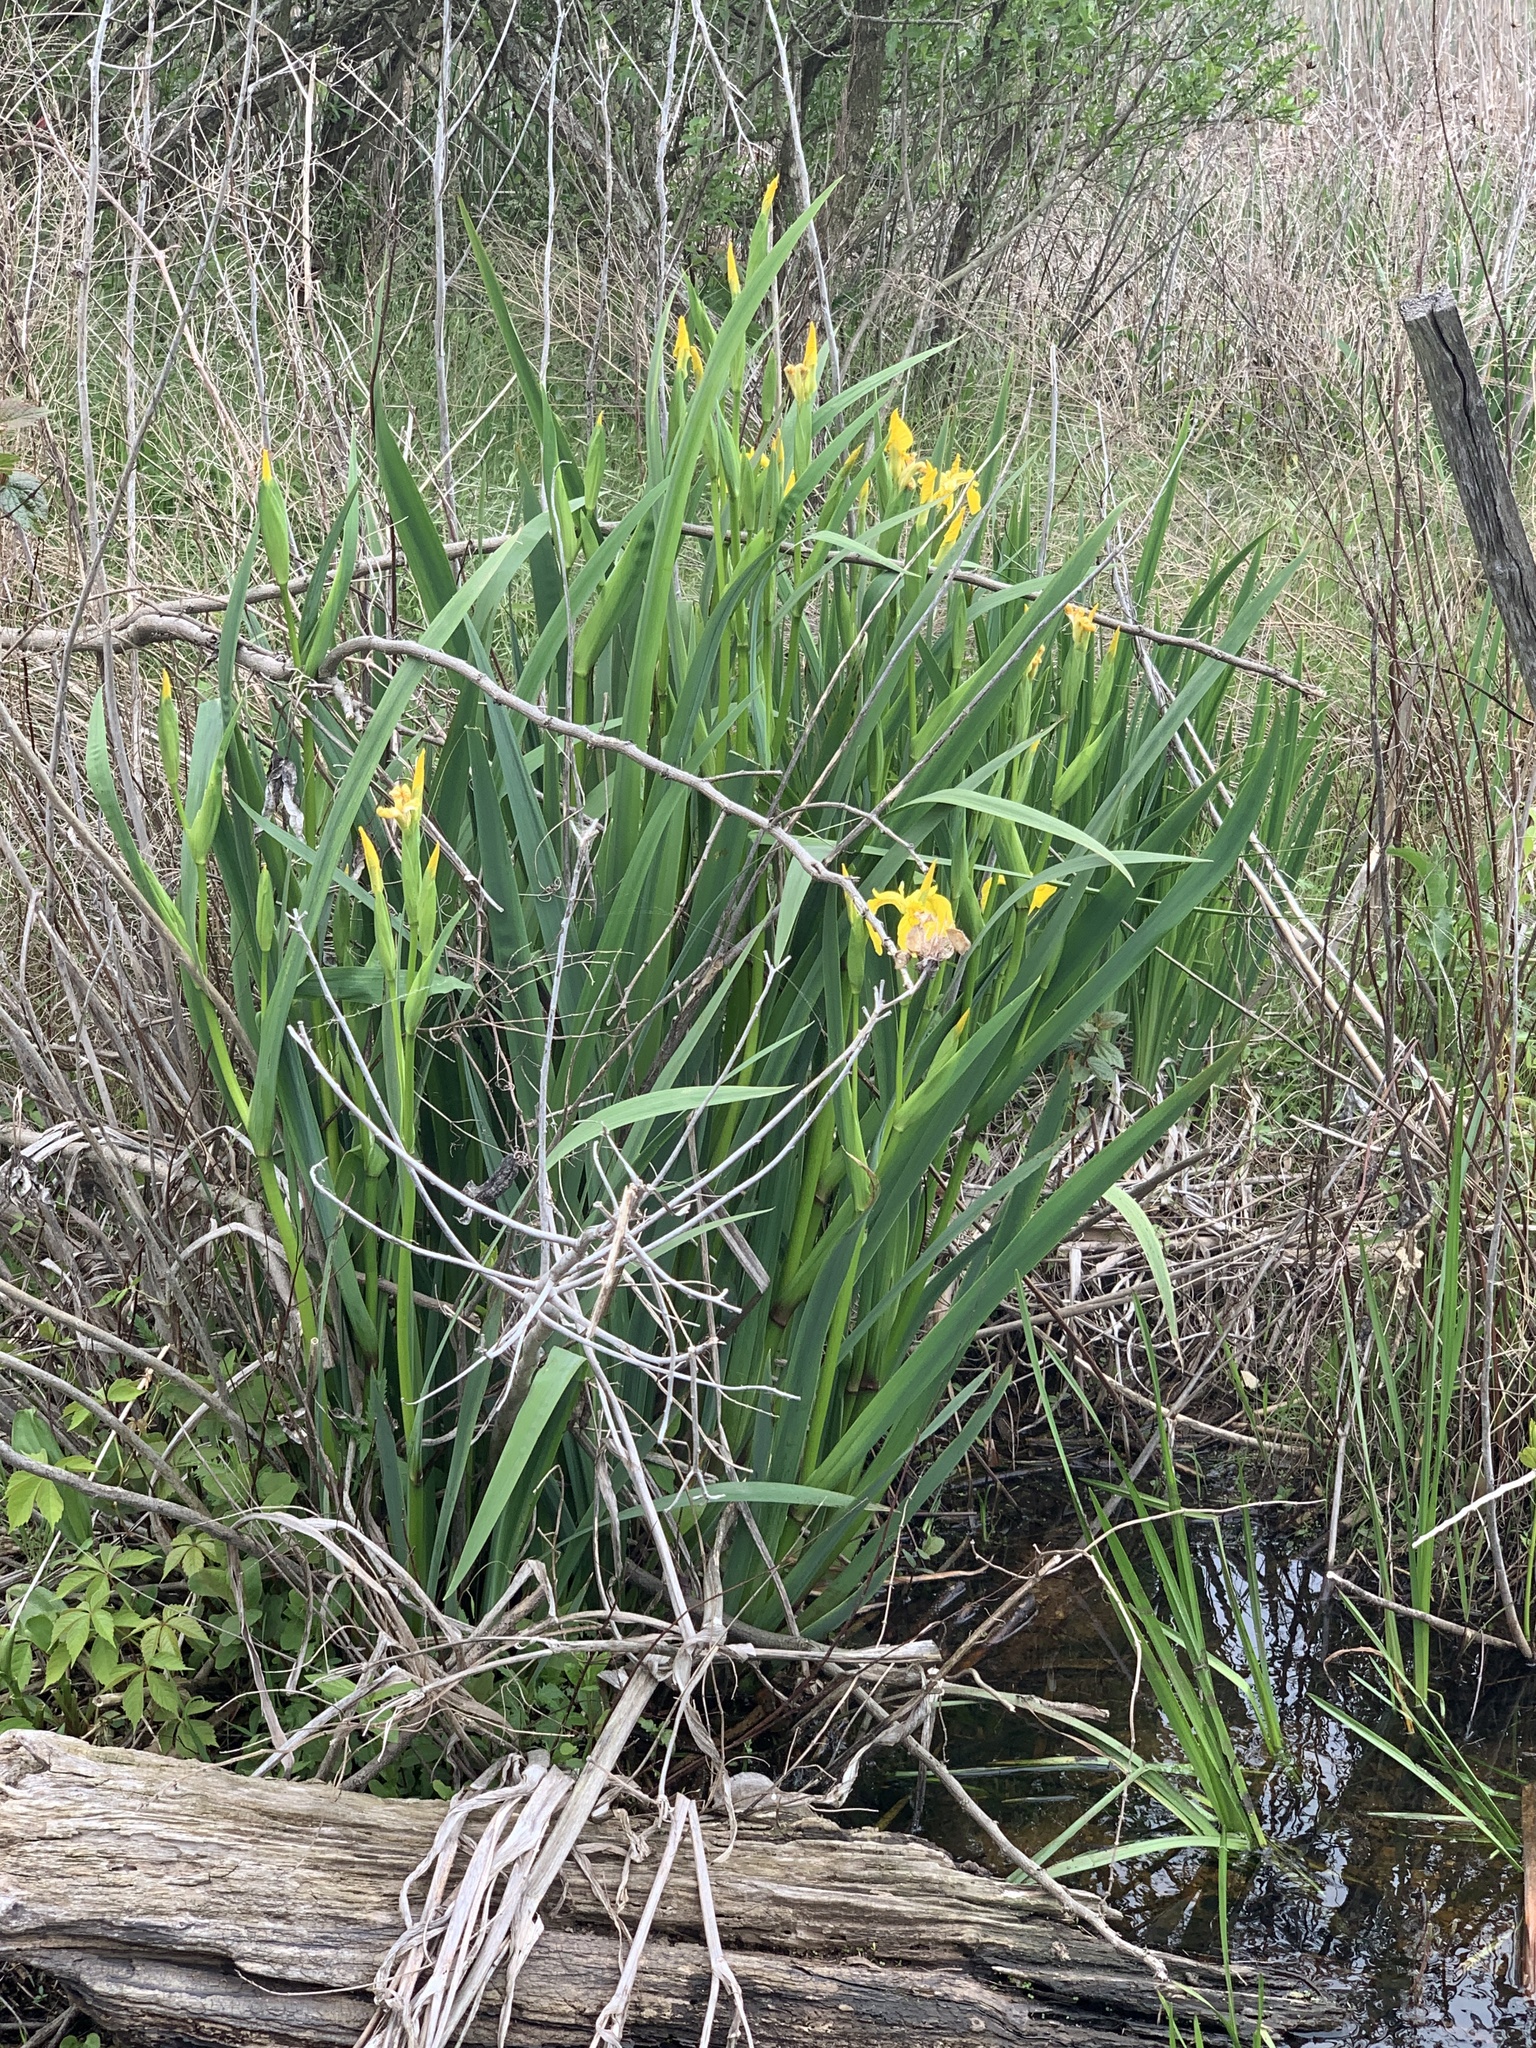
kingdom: Plantae
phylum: Tracheophyta
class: Liliopsida
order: Asparagales
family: Iridaceae
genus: Iris
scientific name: Iris pseudacorus
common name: Yellow flag
